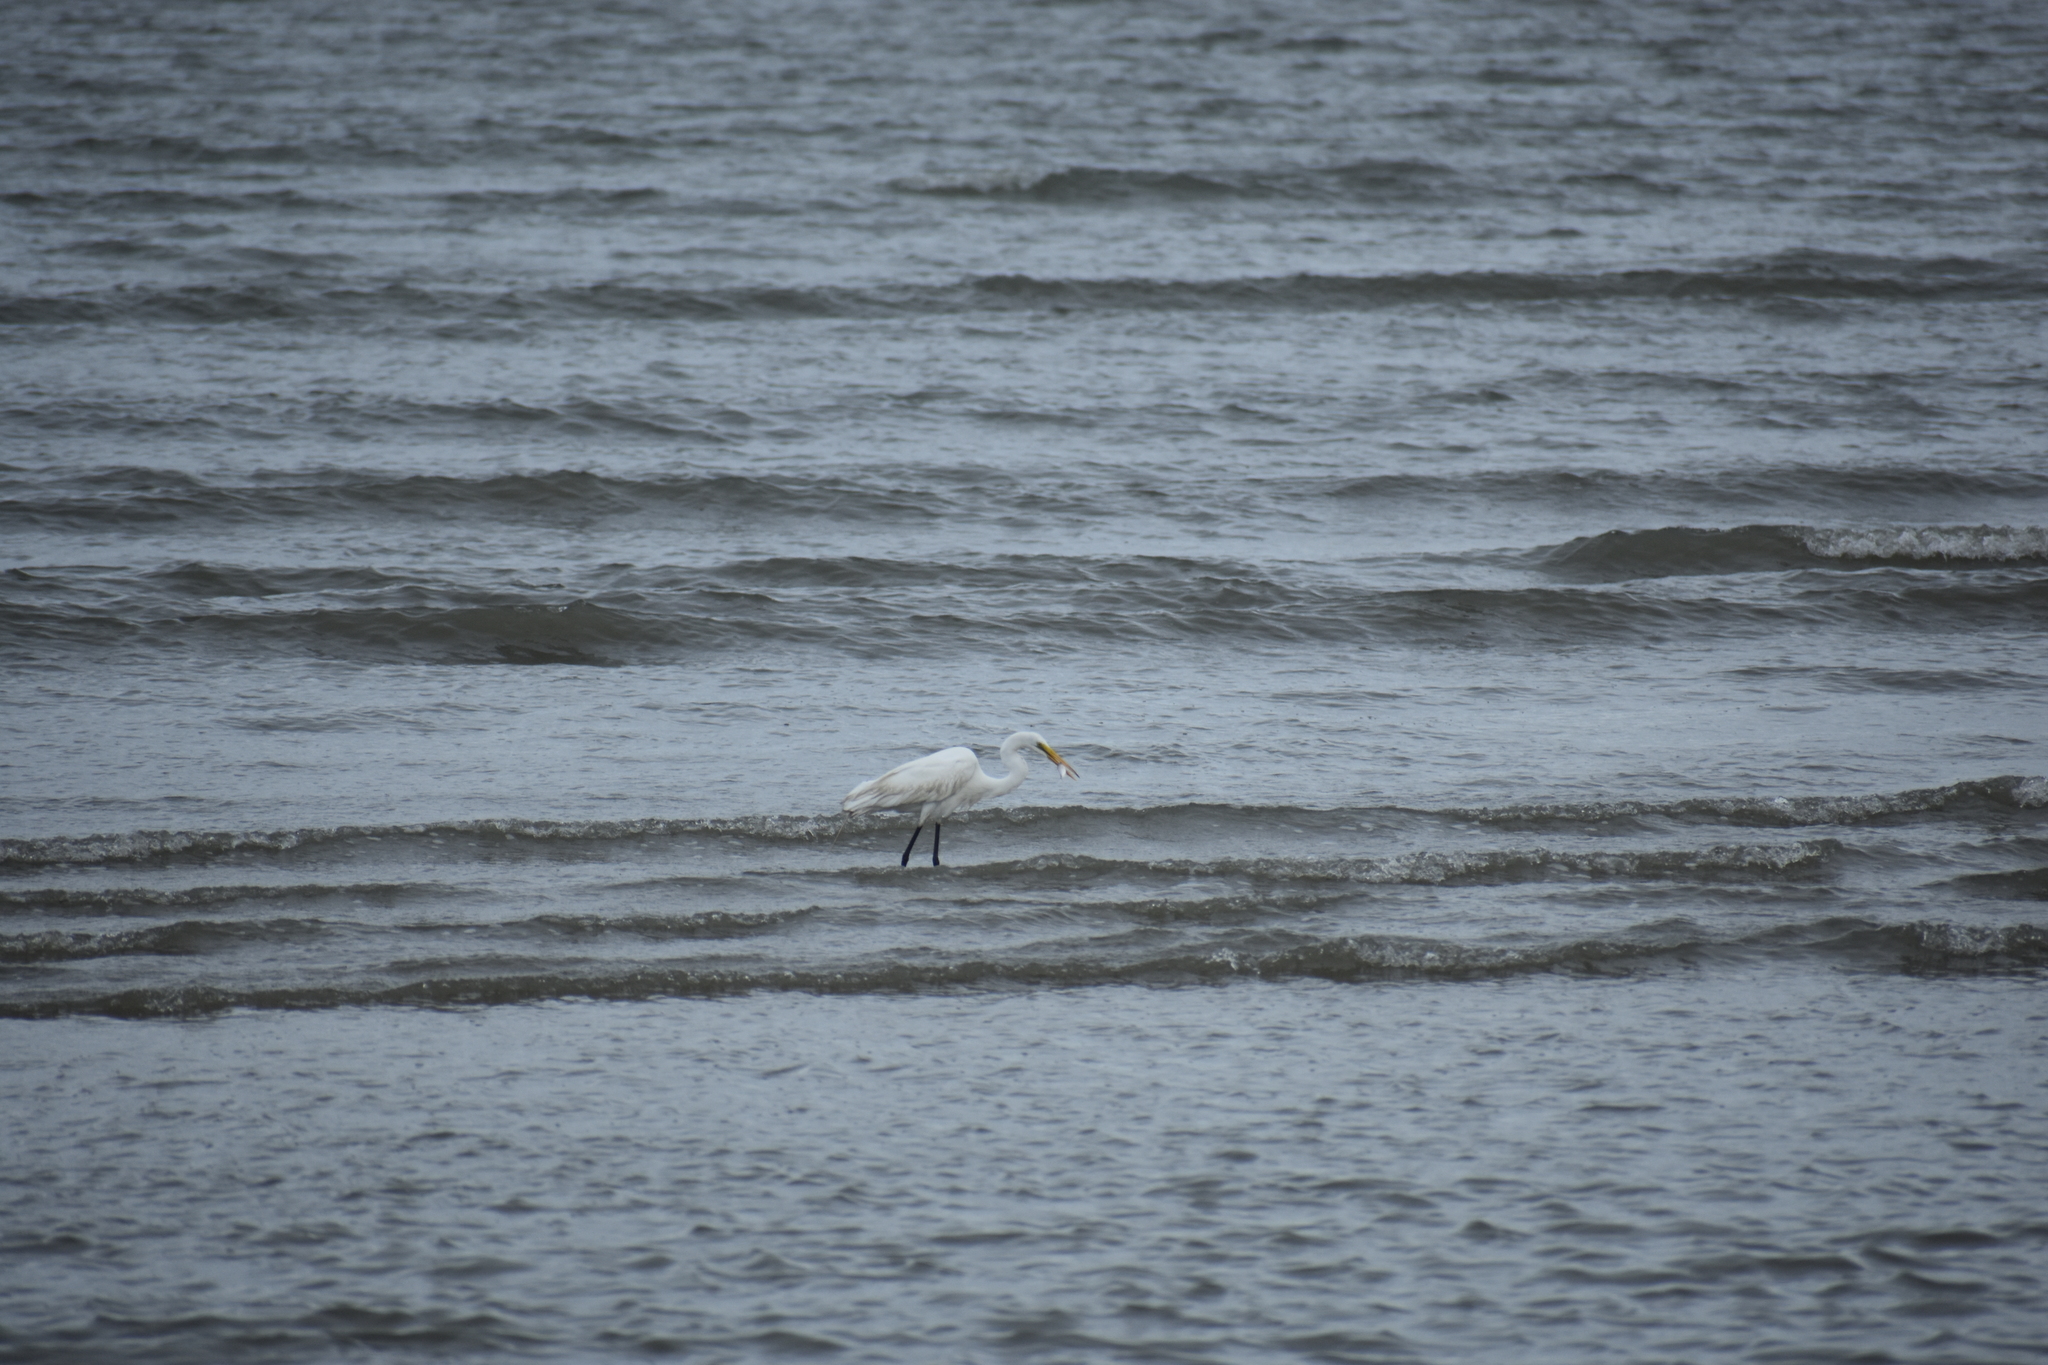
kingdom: Animalia
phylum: Chordata
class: Aves
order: Pelecaniformes
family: Ardeidae
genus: Ardea
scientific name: Ardea alba
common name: Great egret
